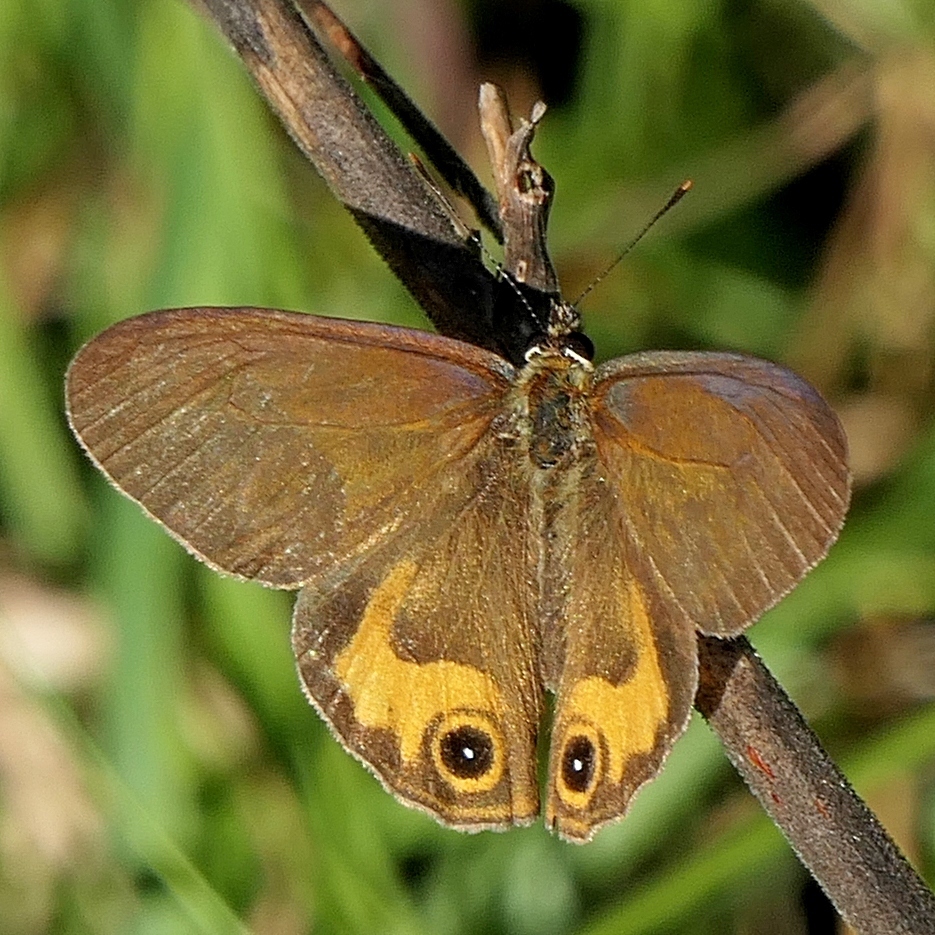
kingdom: Animalia
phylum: Arthropoda
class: Insecta
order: Lepidoptera
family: Nymphalidae
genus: Hypocysta
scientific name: Hypocysta metirius
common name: Brown ringlet
